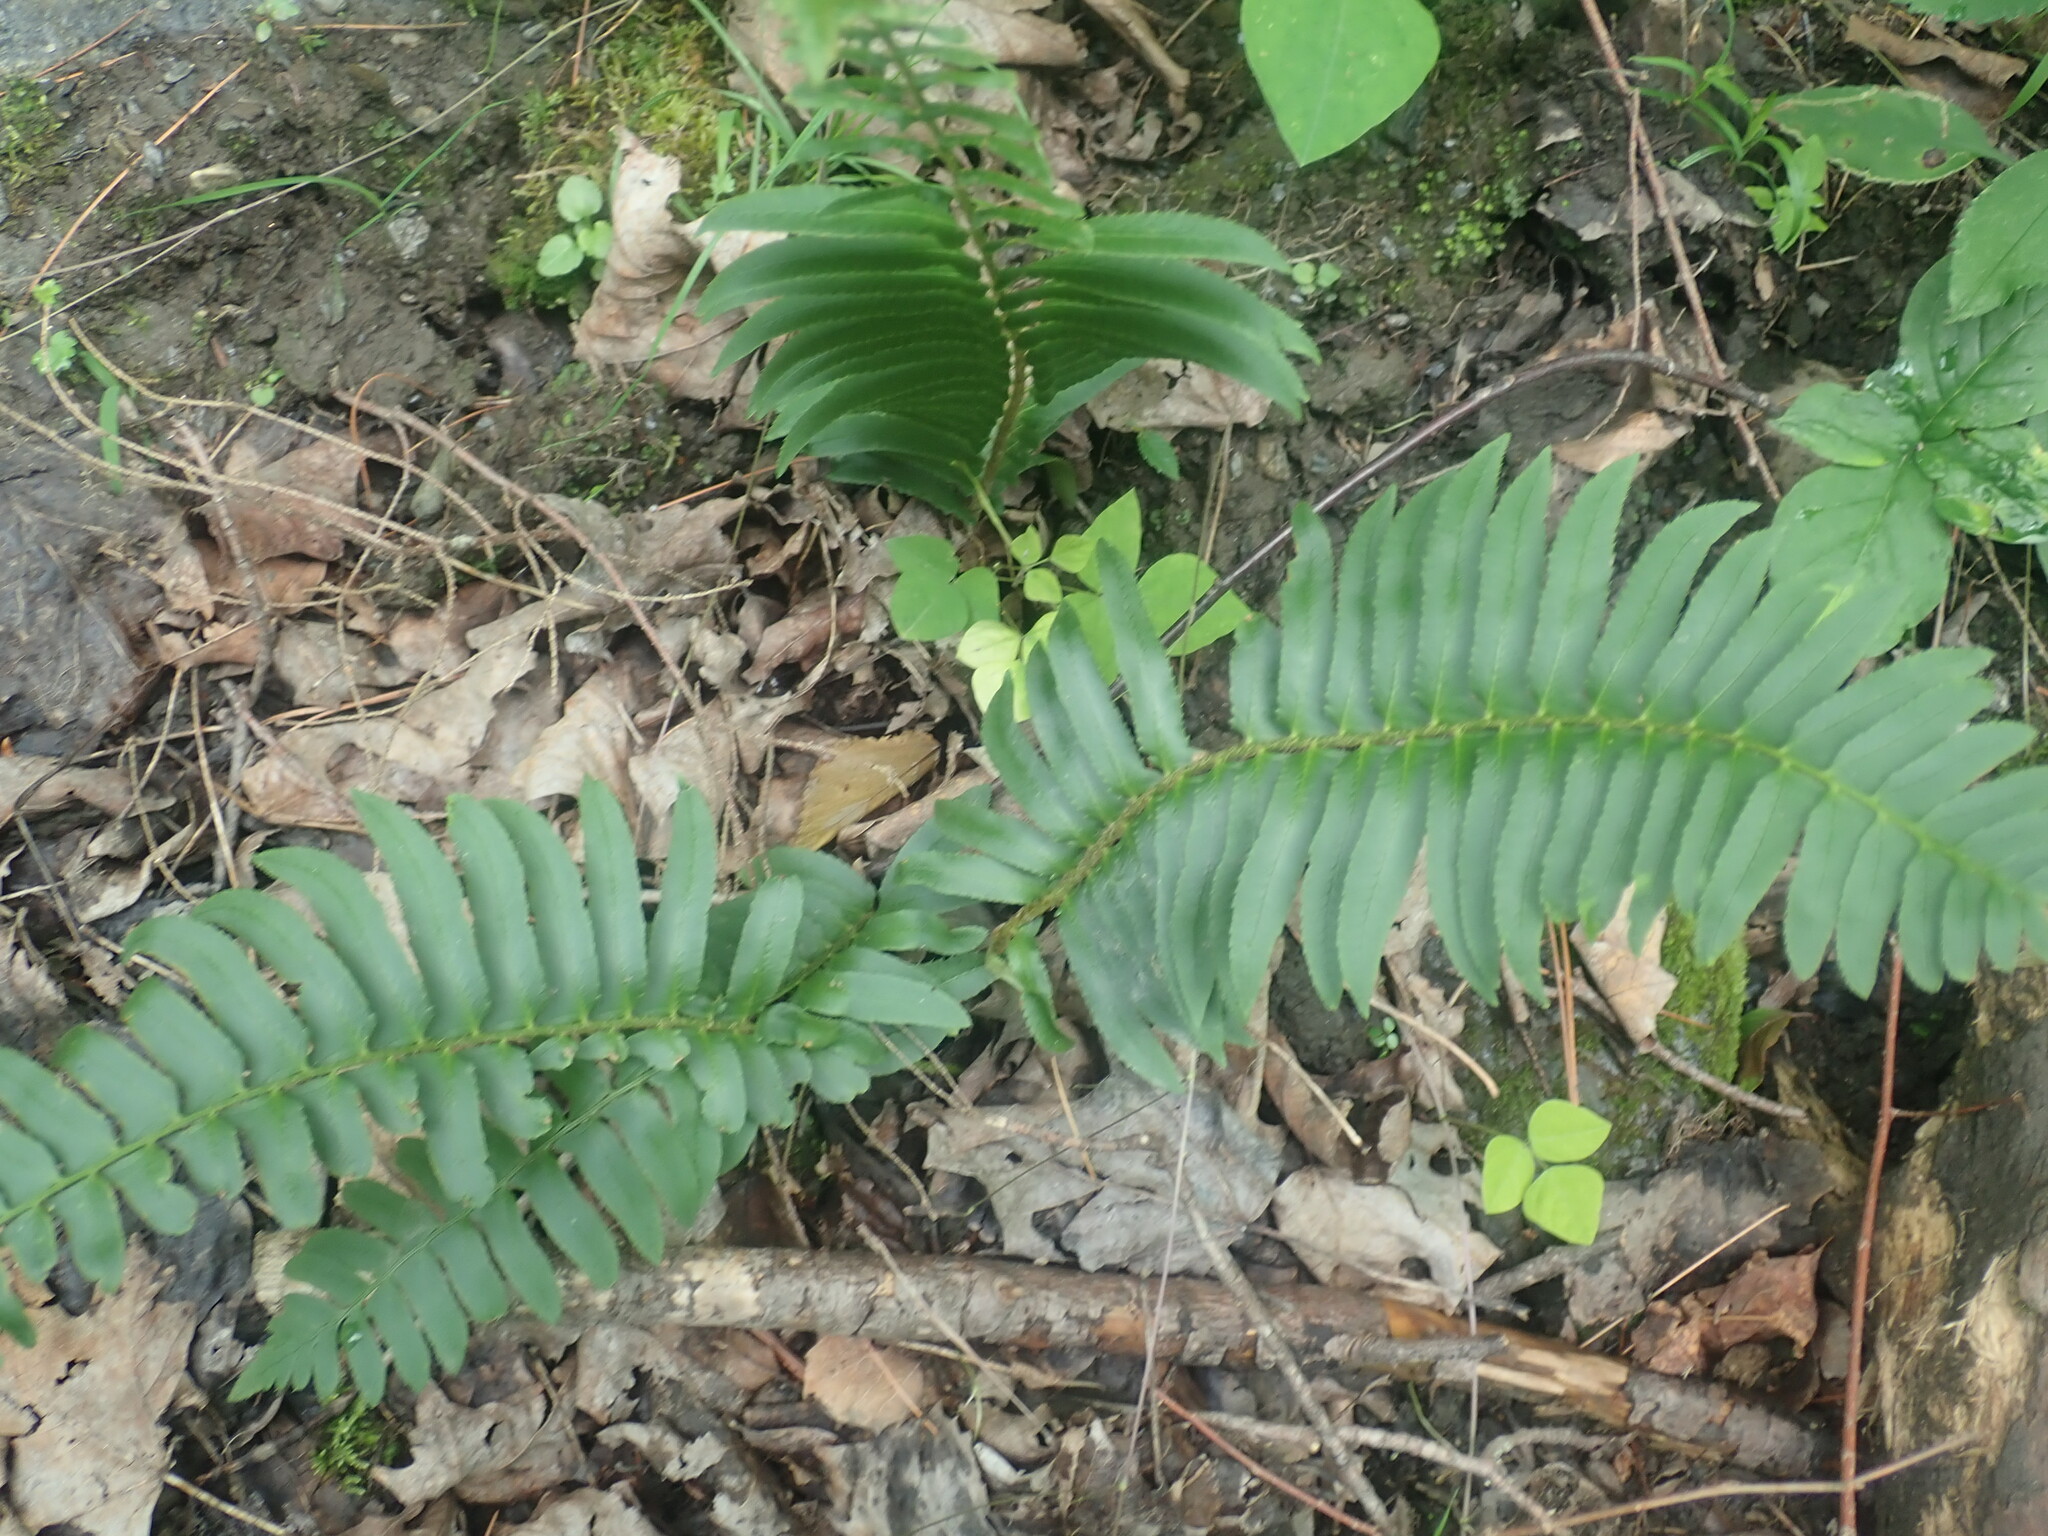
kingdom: Plantae
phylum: Tracheophyta
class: Polypodiopsida
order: Polypodiales
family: Dryopteridaceae
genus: Polystichum
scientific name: Polystichum acrostichoides
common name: Christmas fern
